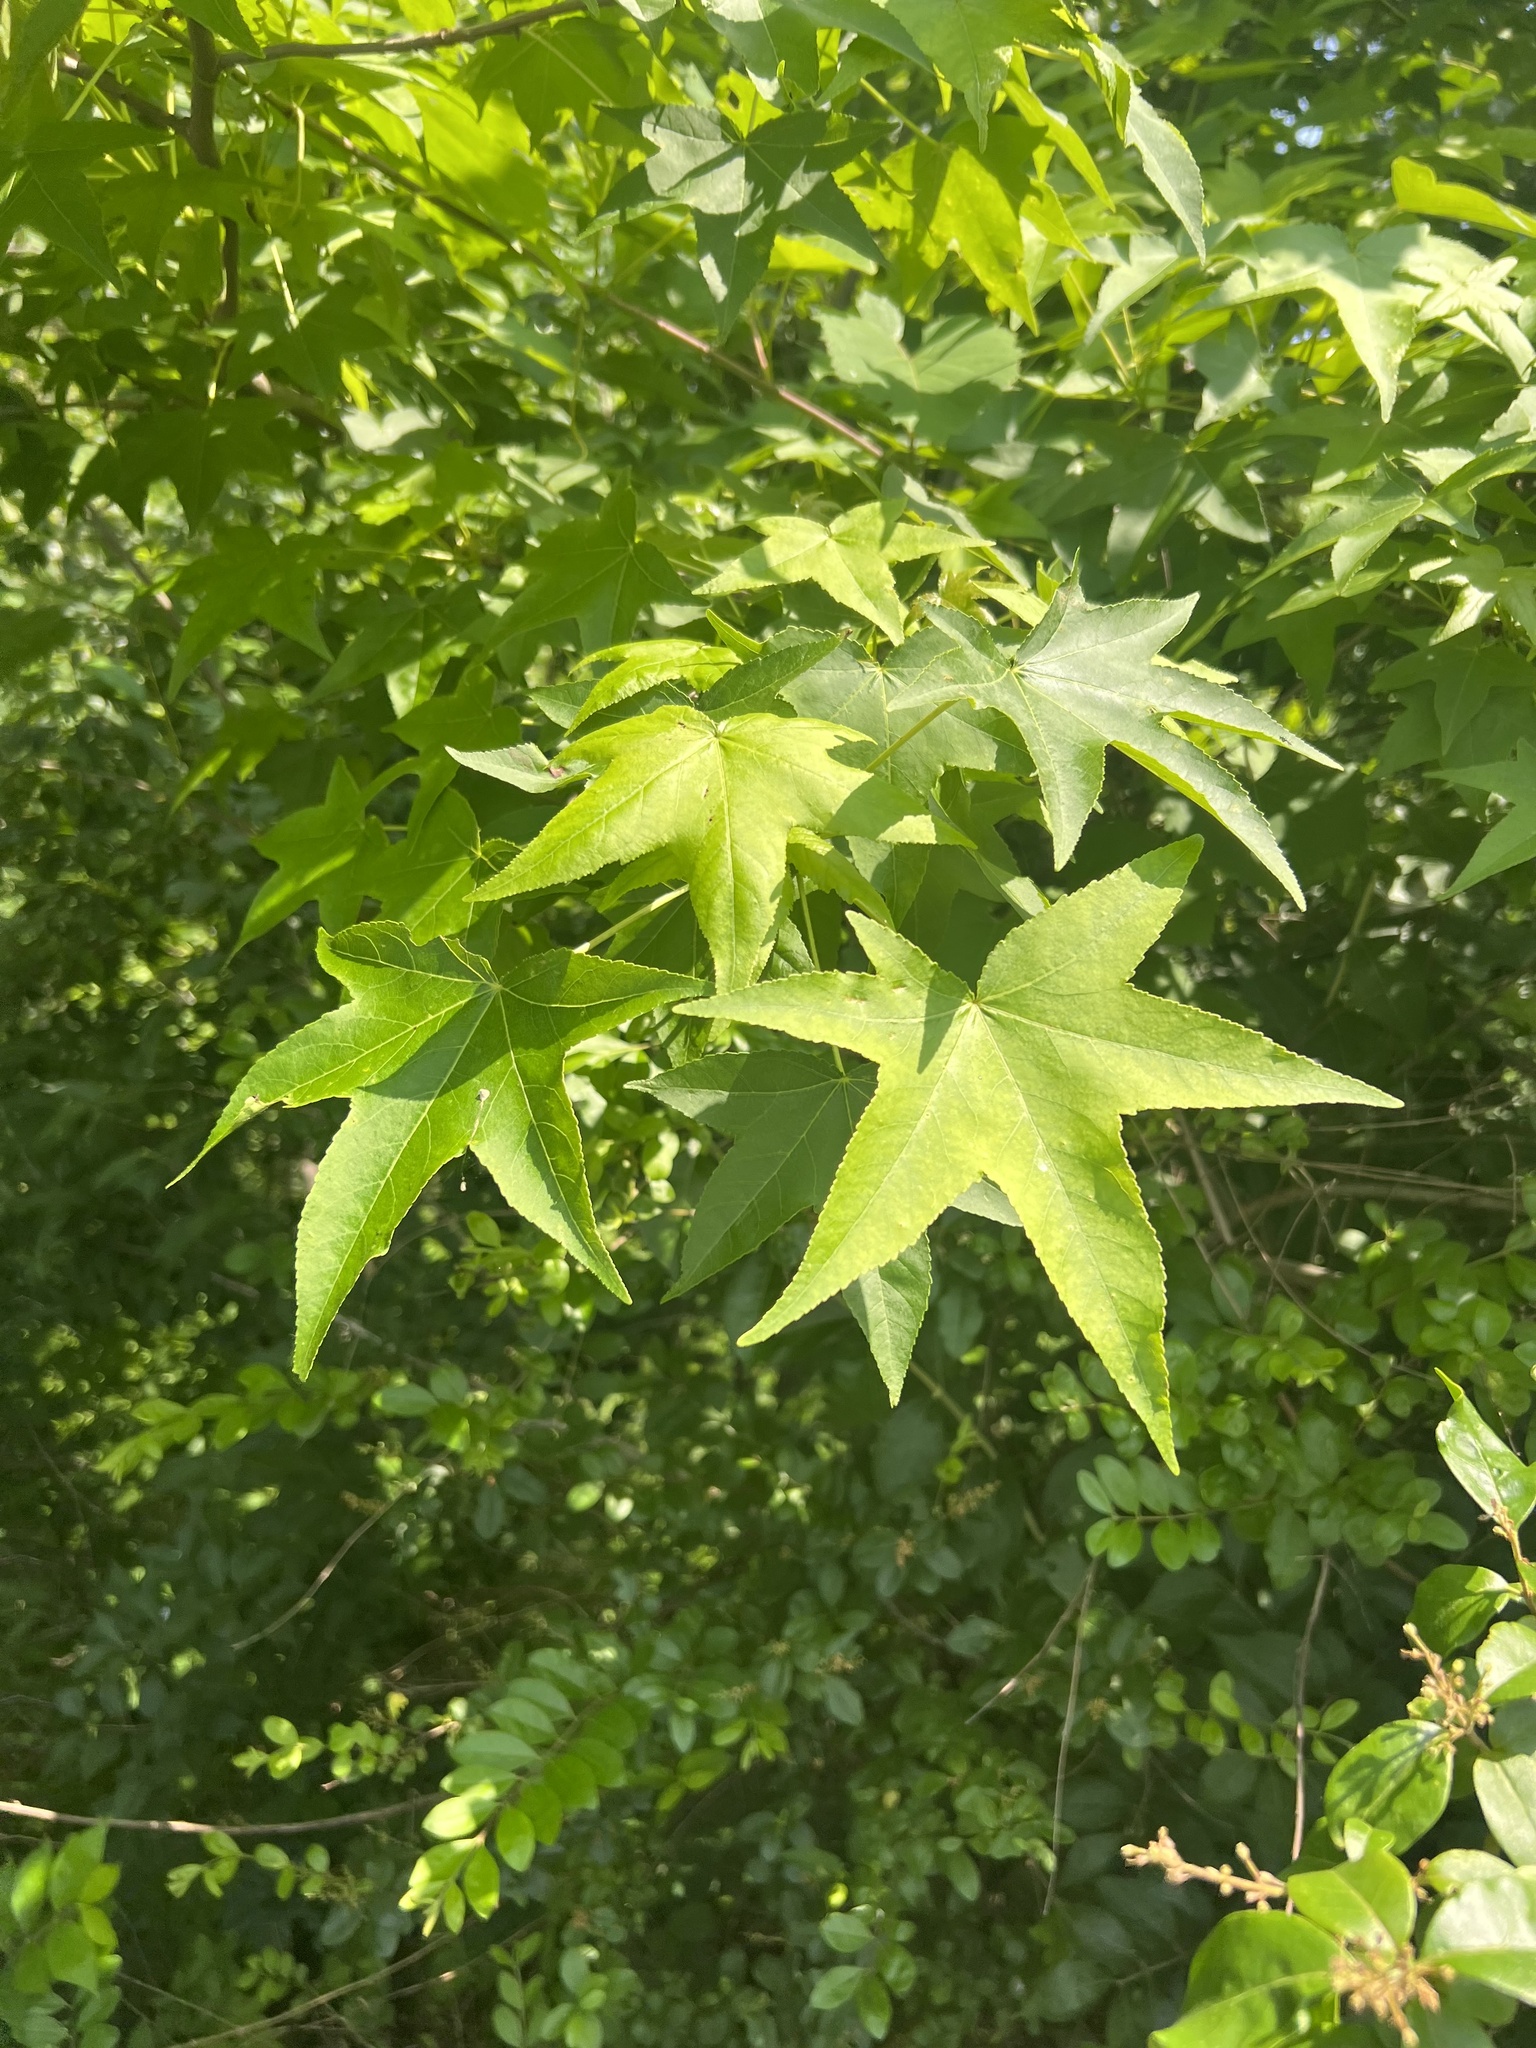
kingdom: Plantae
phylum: Tracheophyta
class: Magnoliopsida
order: Saxifragales
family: Altingiaceae
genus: Liquidambar
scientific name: Liquidambar styraciflua
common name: Sweet gum
